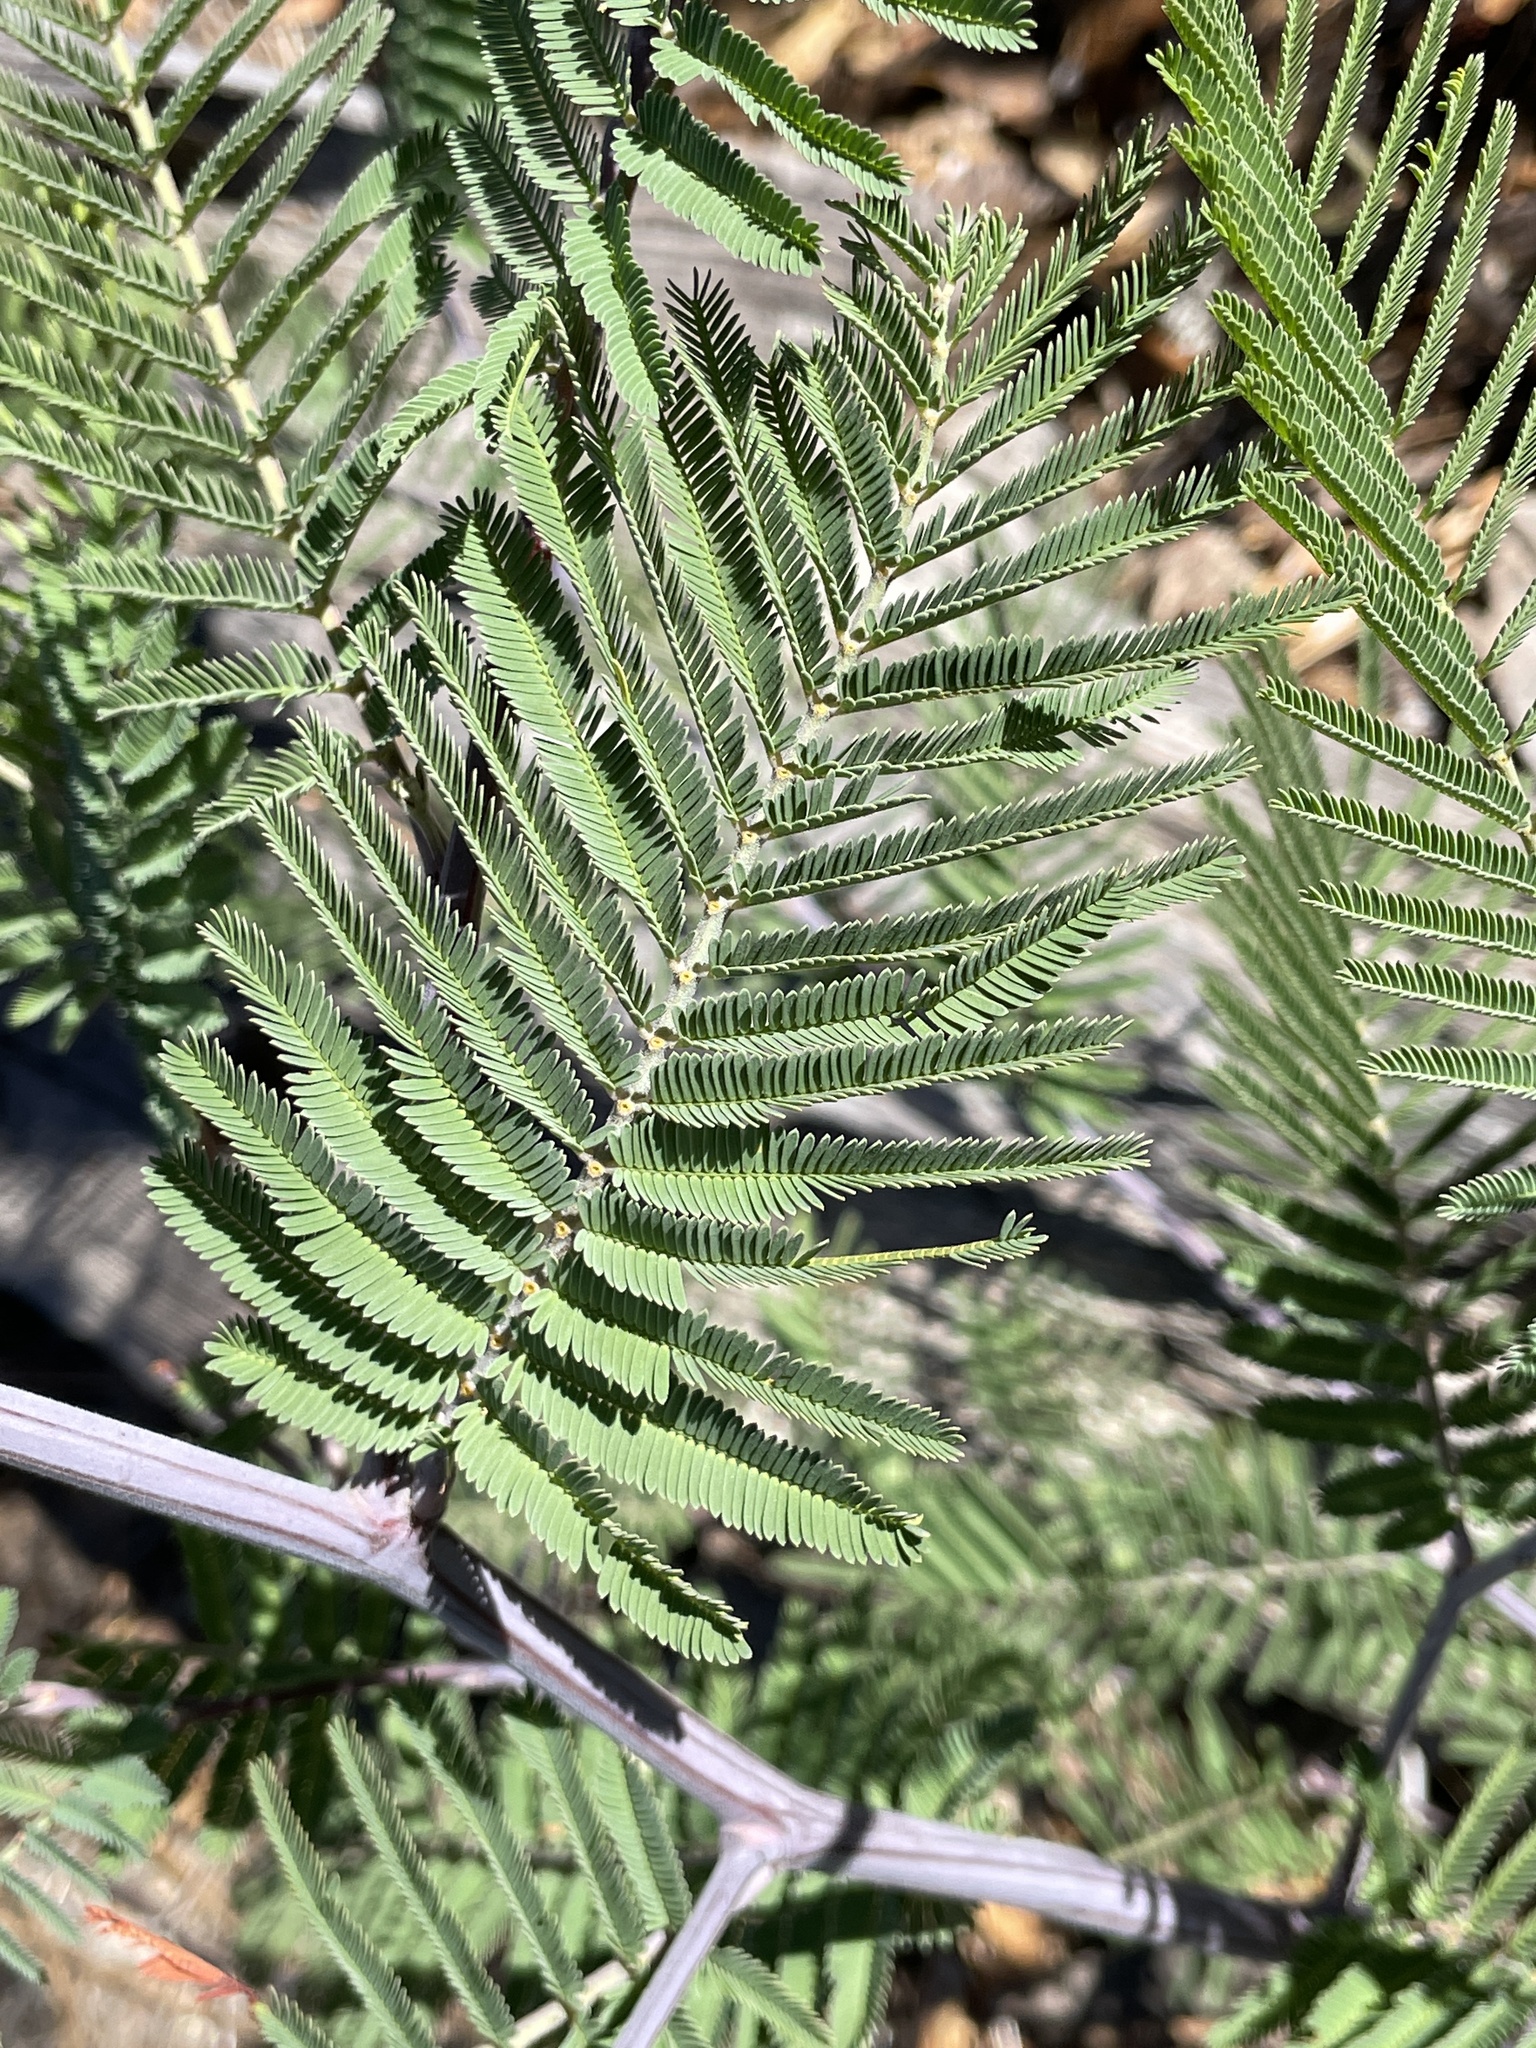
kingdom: Plantae
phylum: Tracheophyta
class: Magnoliopsida
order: Fabales
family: Fabaceae
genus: Acacia
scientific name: Acacia dealbata
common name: Silver wattle
